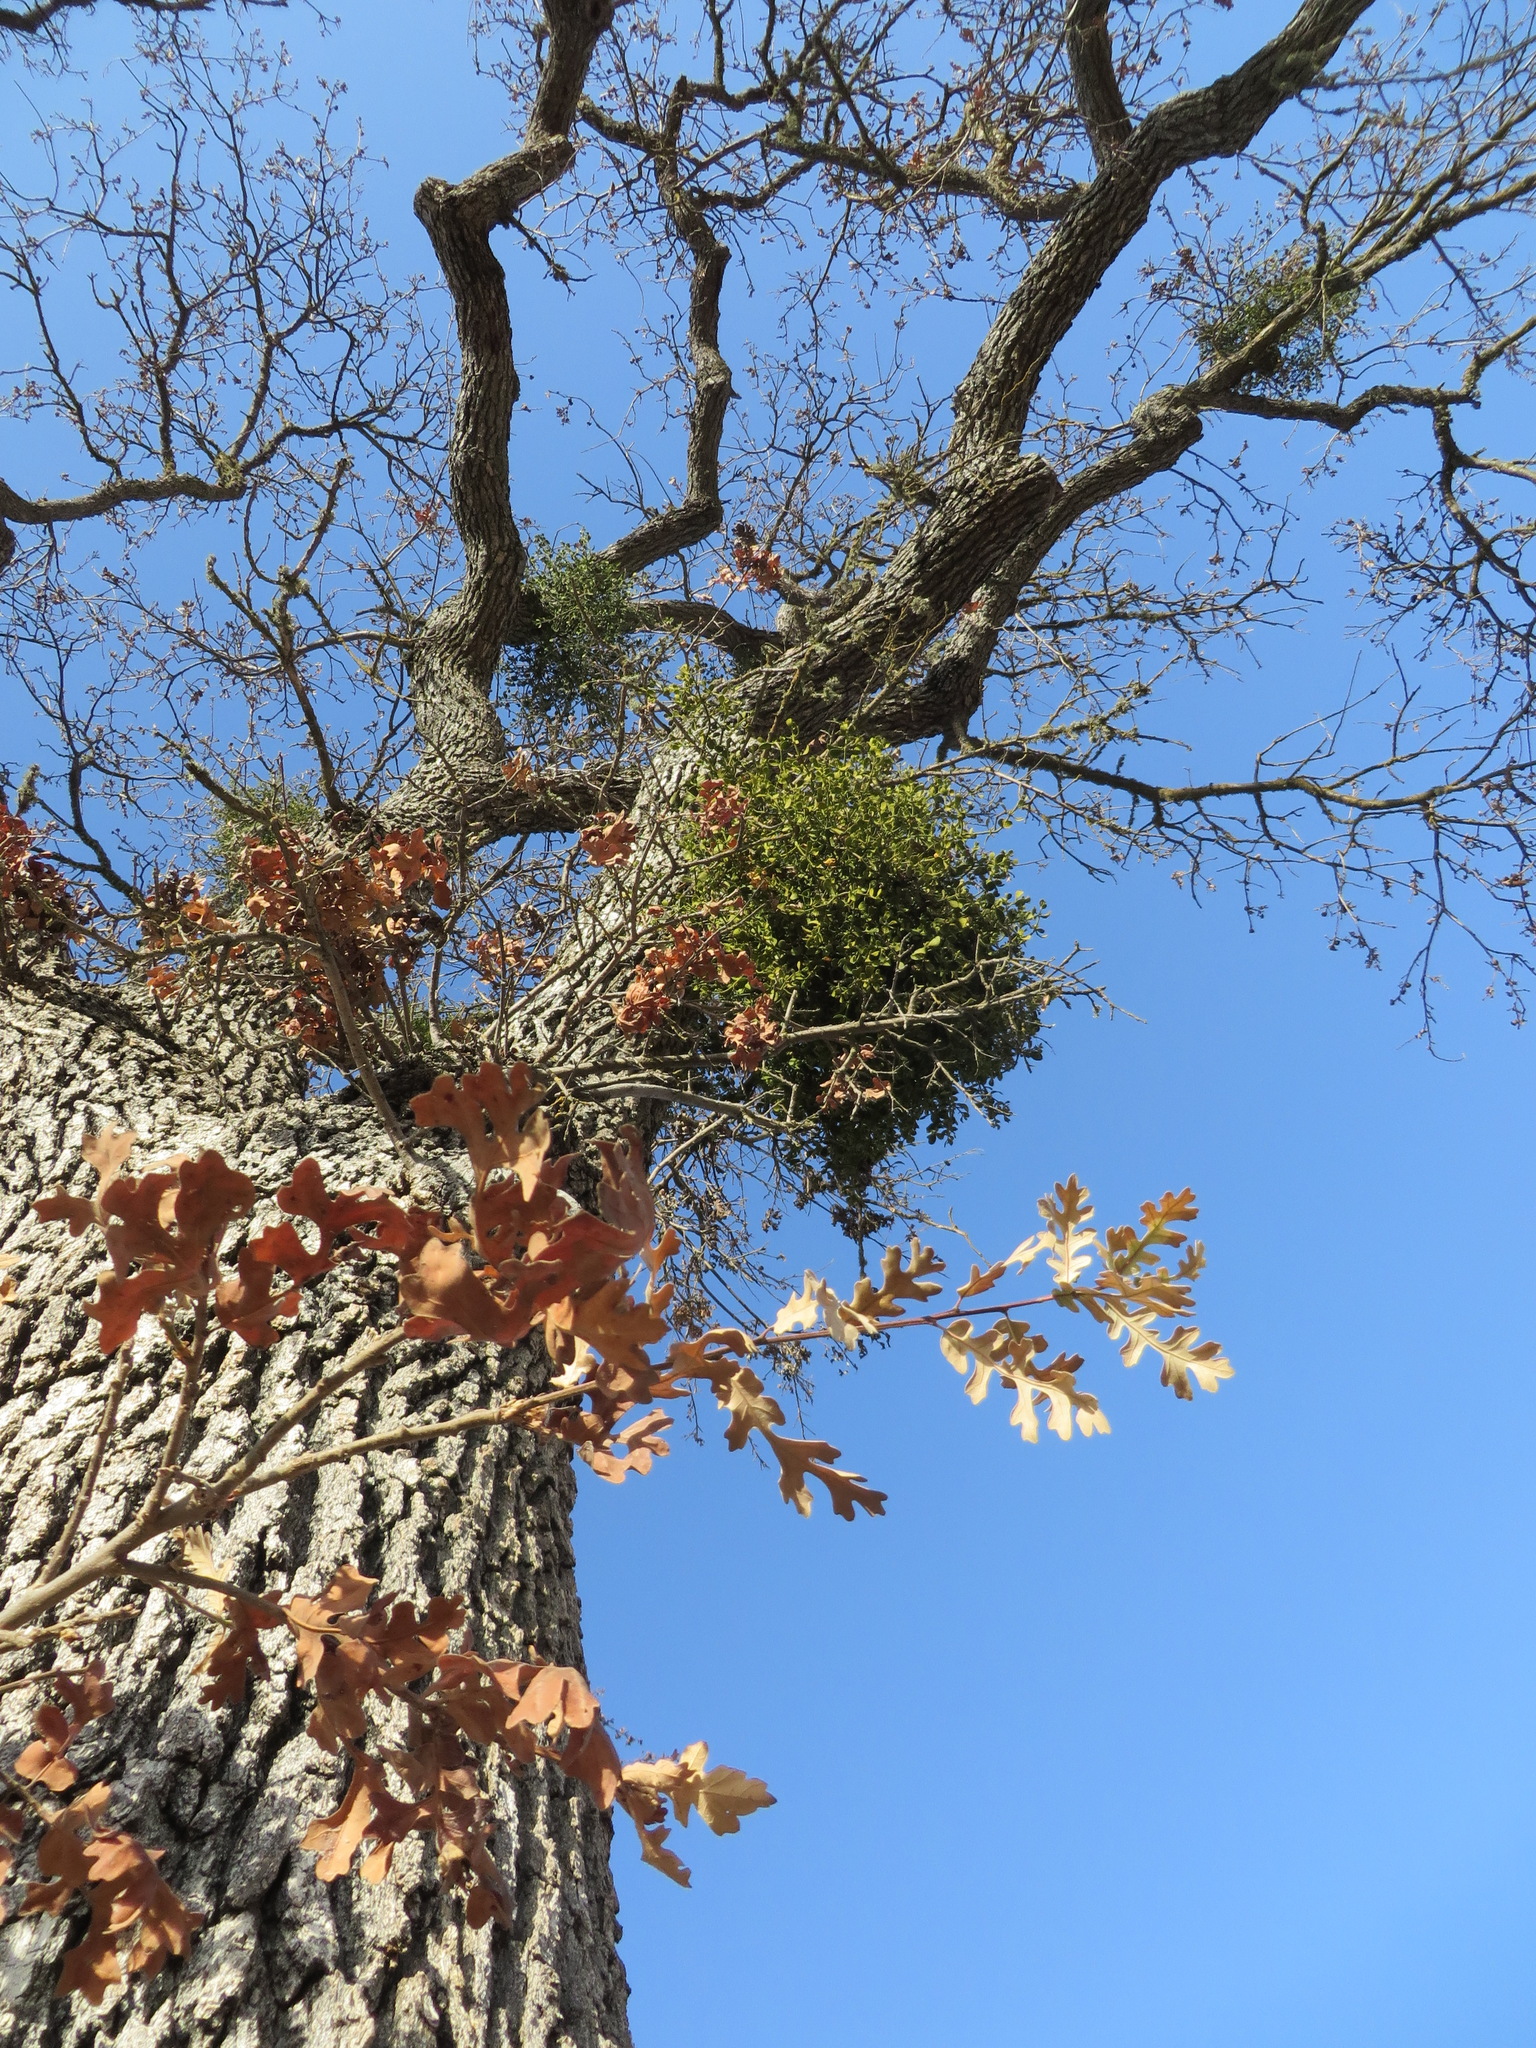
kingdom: Plantae
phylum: Tracheophyta
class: Magnoliopsida
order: Fagales
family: Fagaceae
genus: Quercus
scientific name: Quercus lobata
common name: Valley oak
